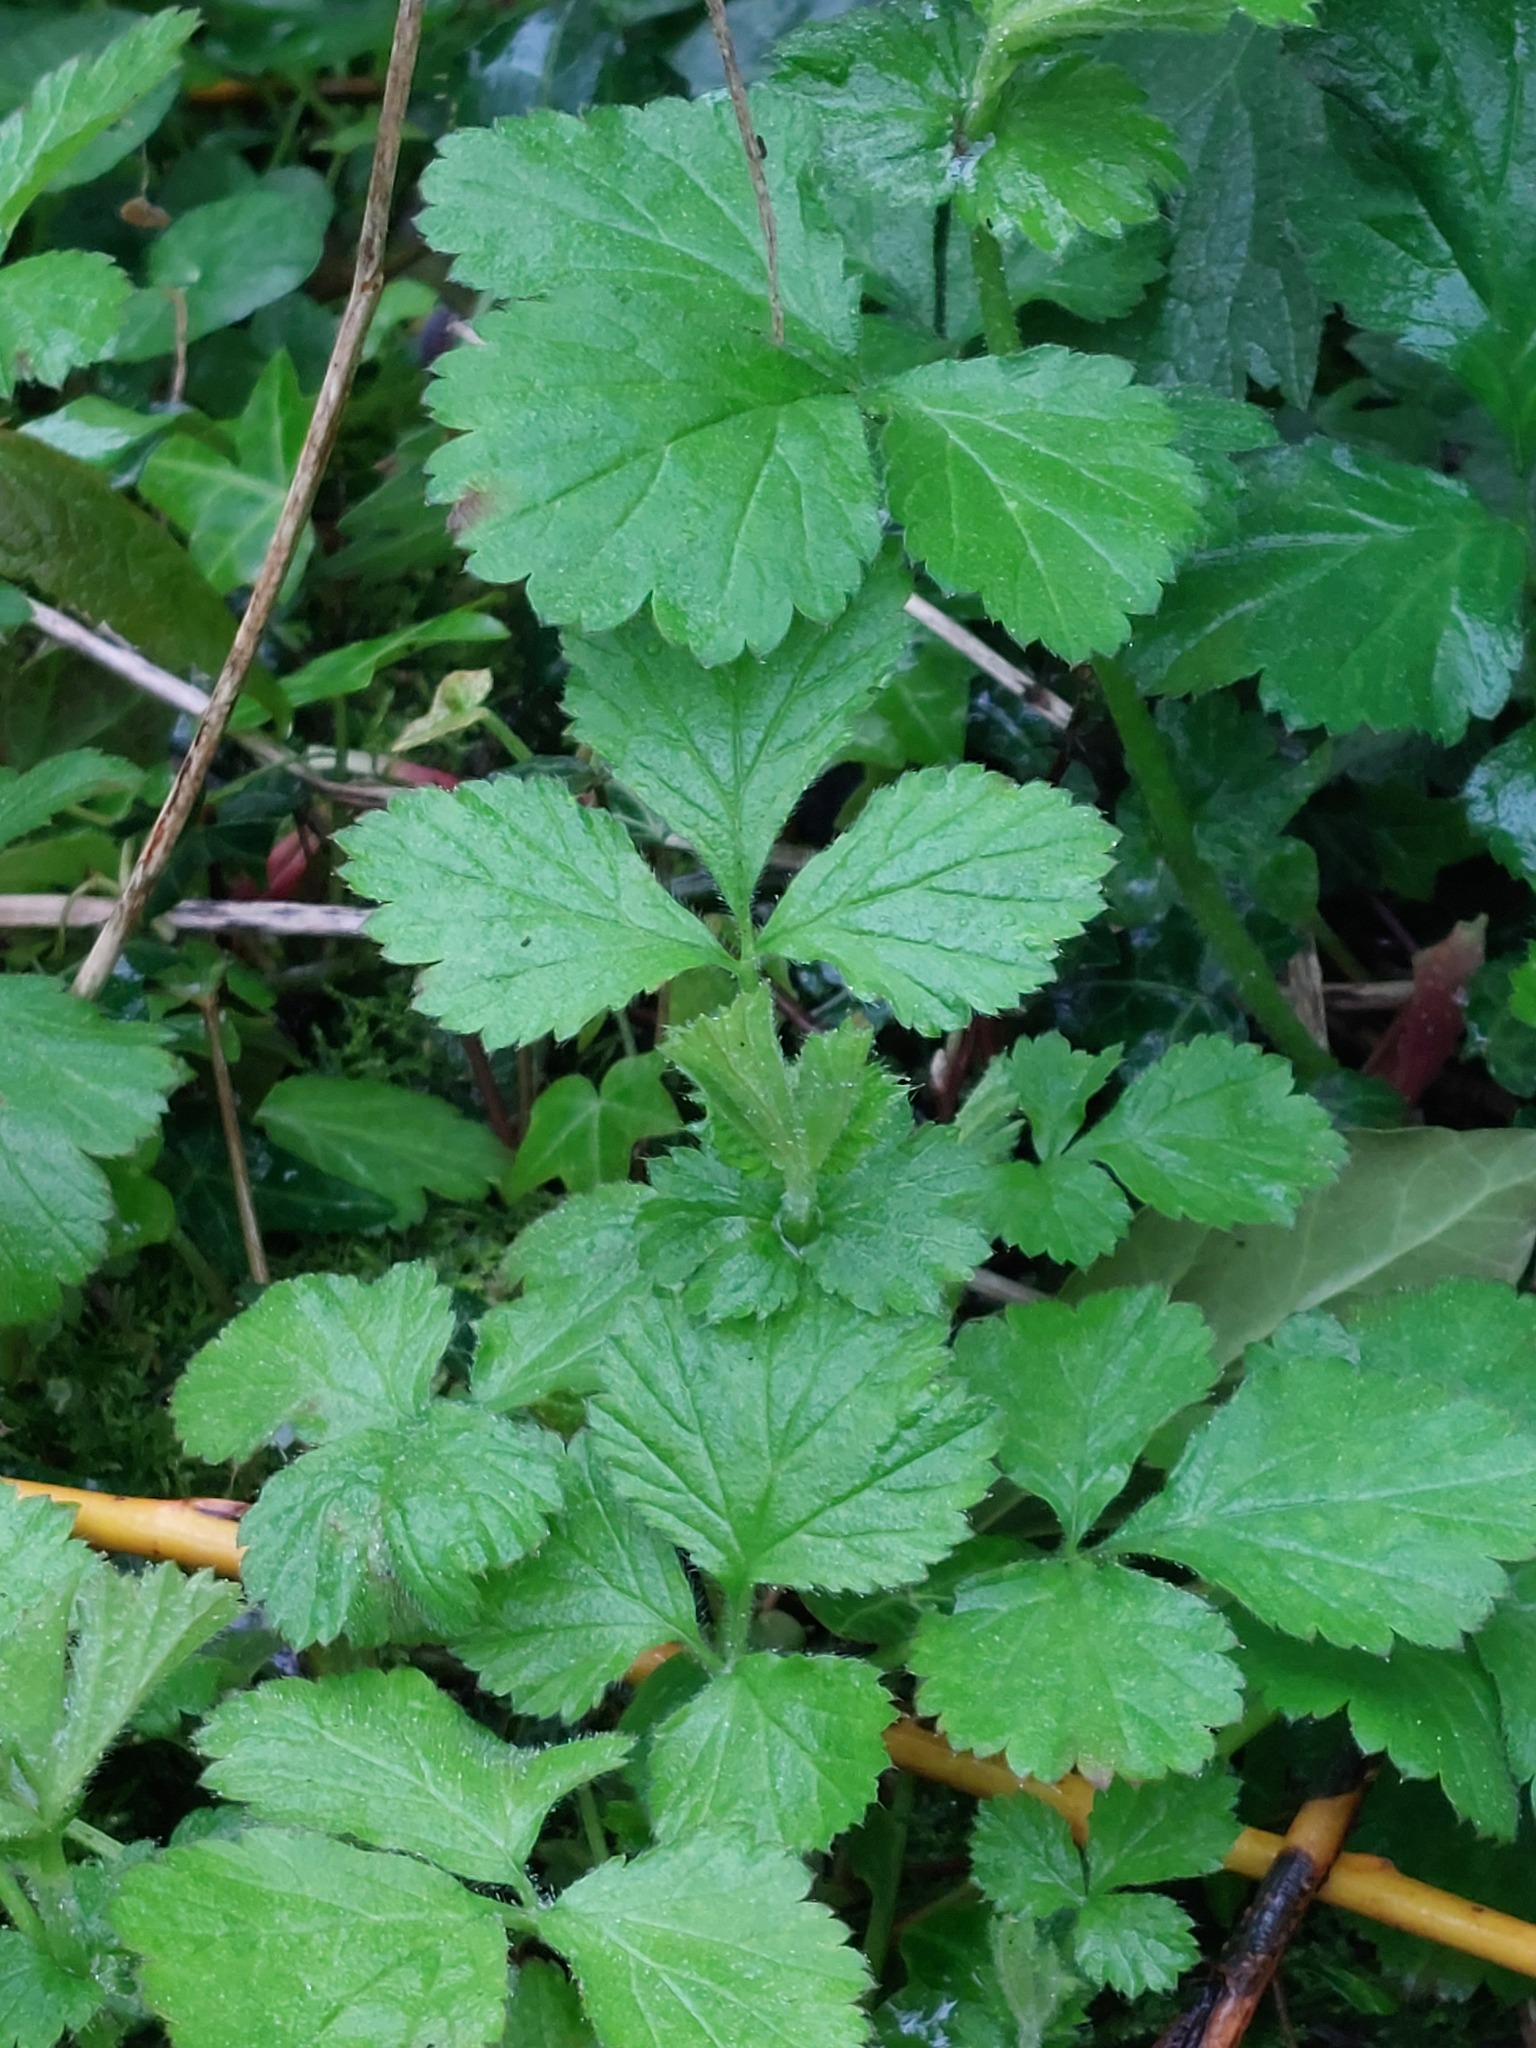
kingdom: Plantae
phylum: Tracheophyta
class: Magnoliopsida
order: Rosales
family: Rosaceae
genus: Geum
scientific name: Geum urbanum
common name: Wood avens
